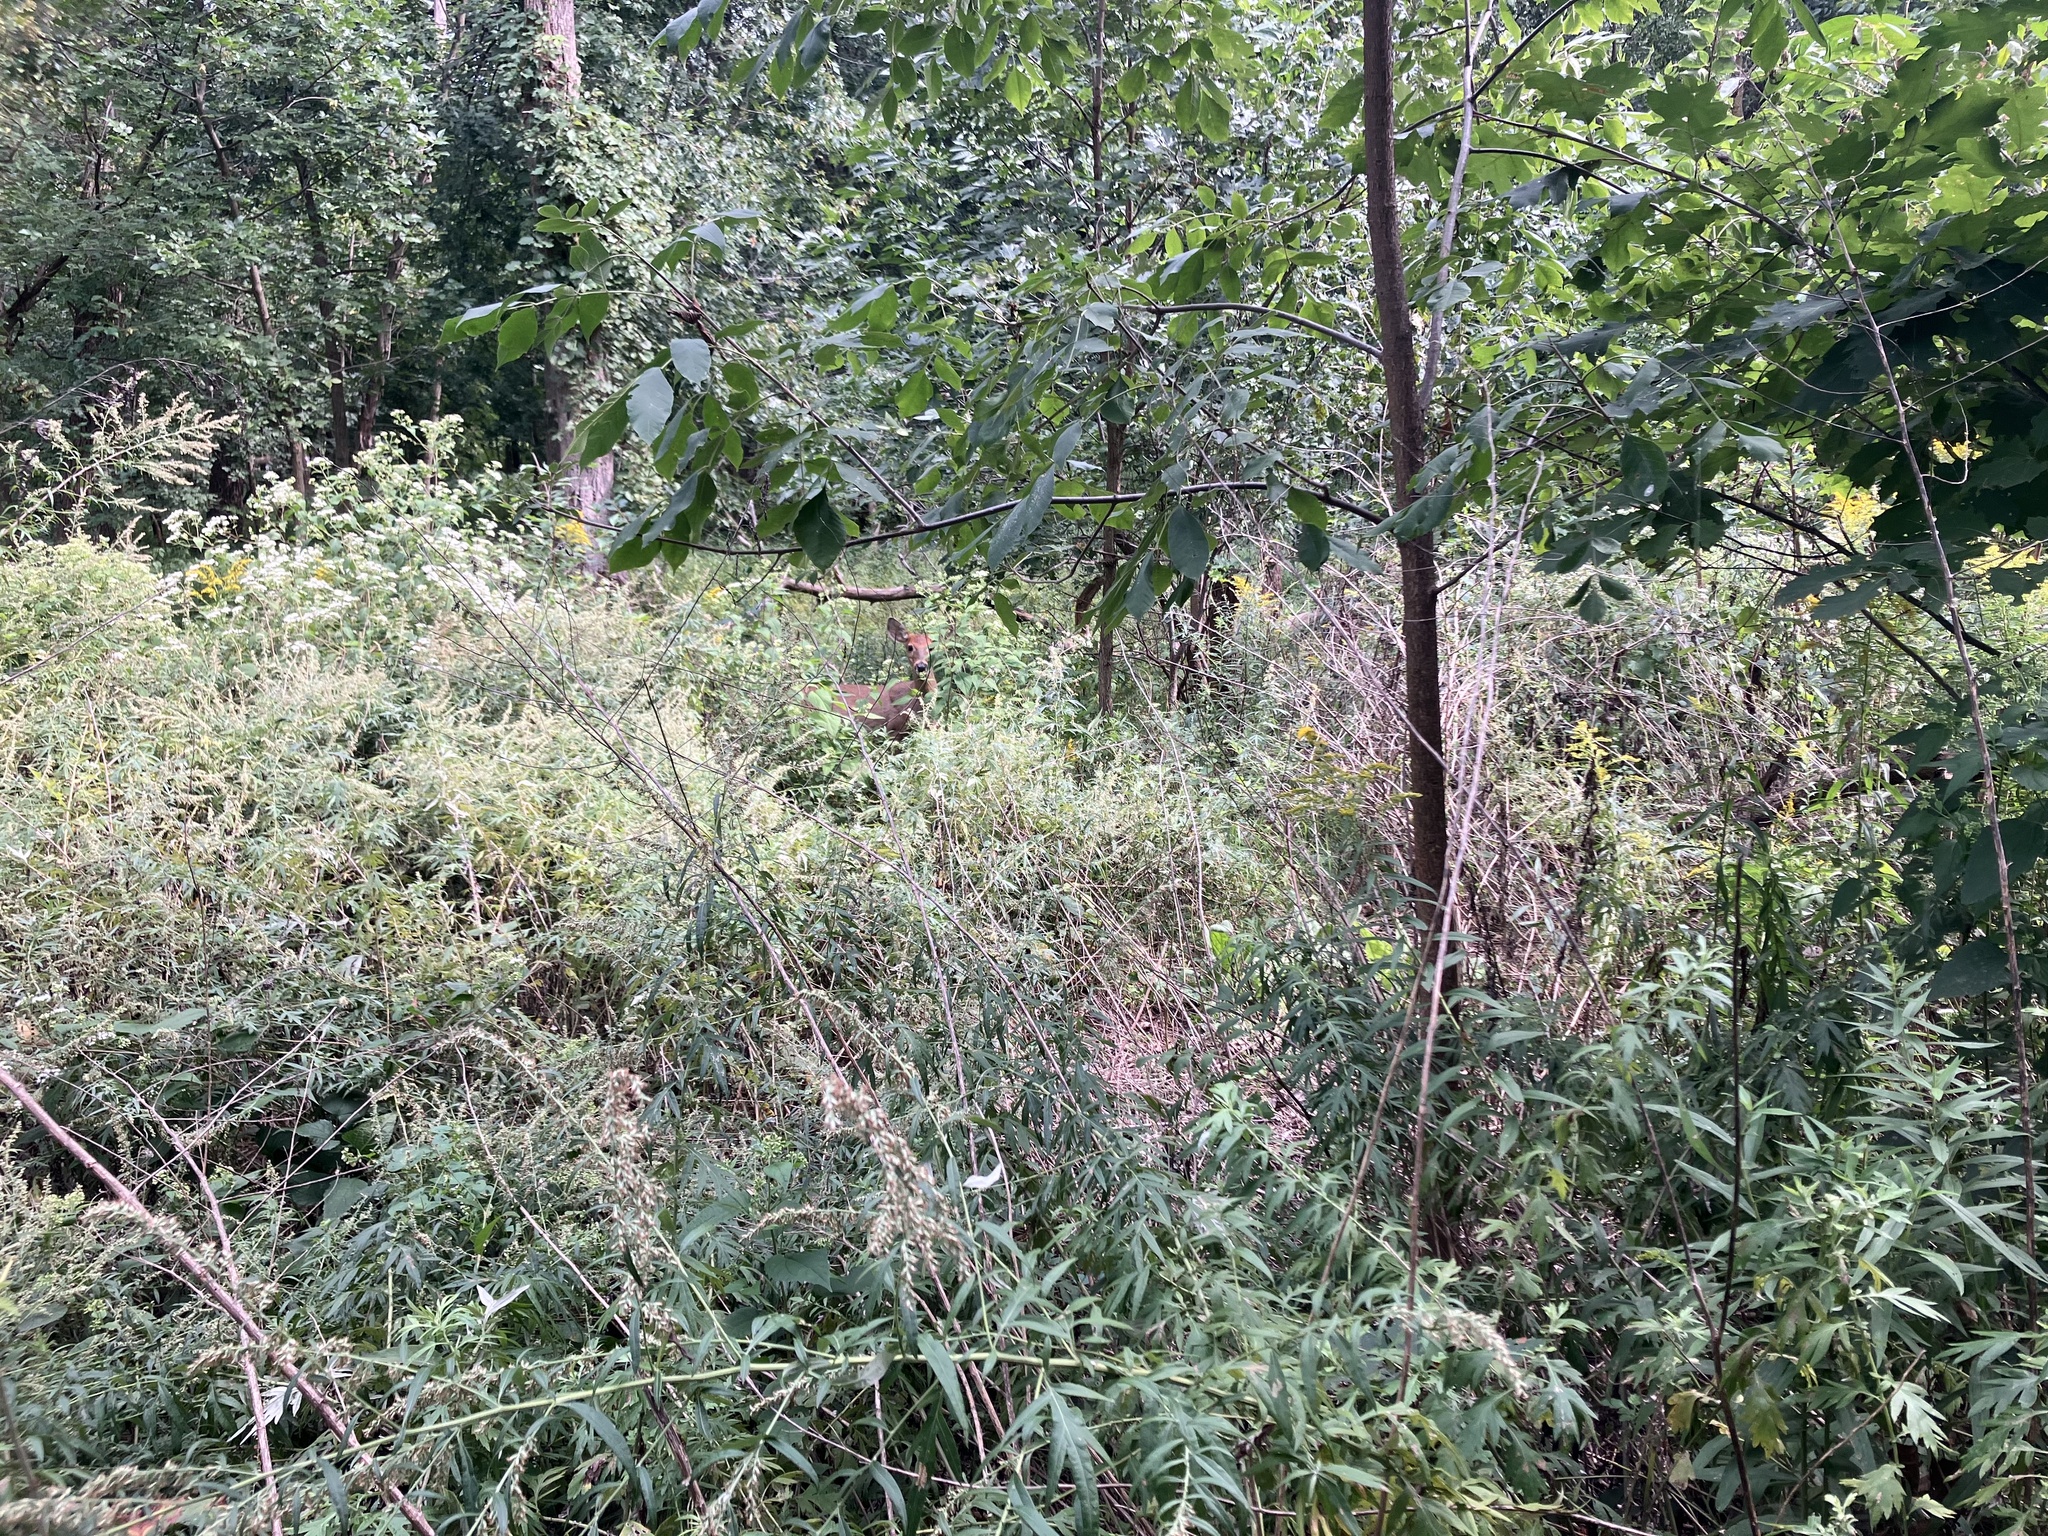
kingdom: Animalia
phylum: Chordata
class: Mammalia
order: Artiodactyla
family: Cervidae
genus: Odocoileus
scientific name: Odocoileus virginianus
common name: White-tailed deer
